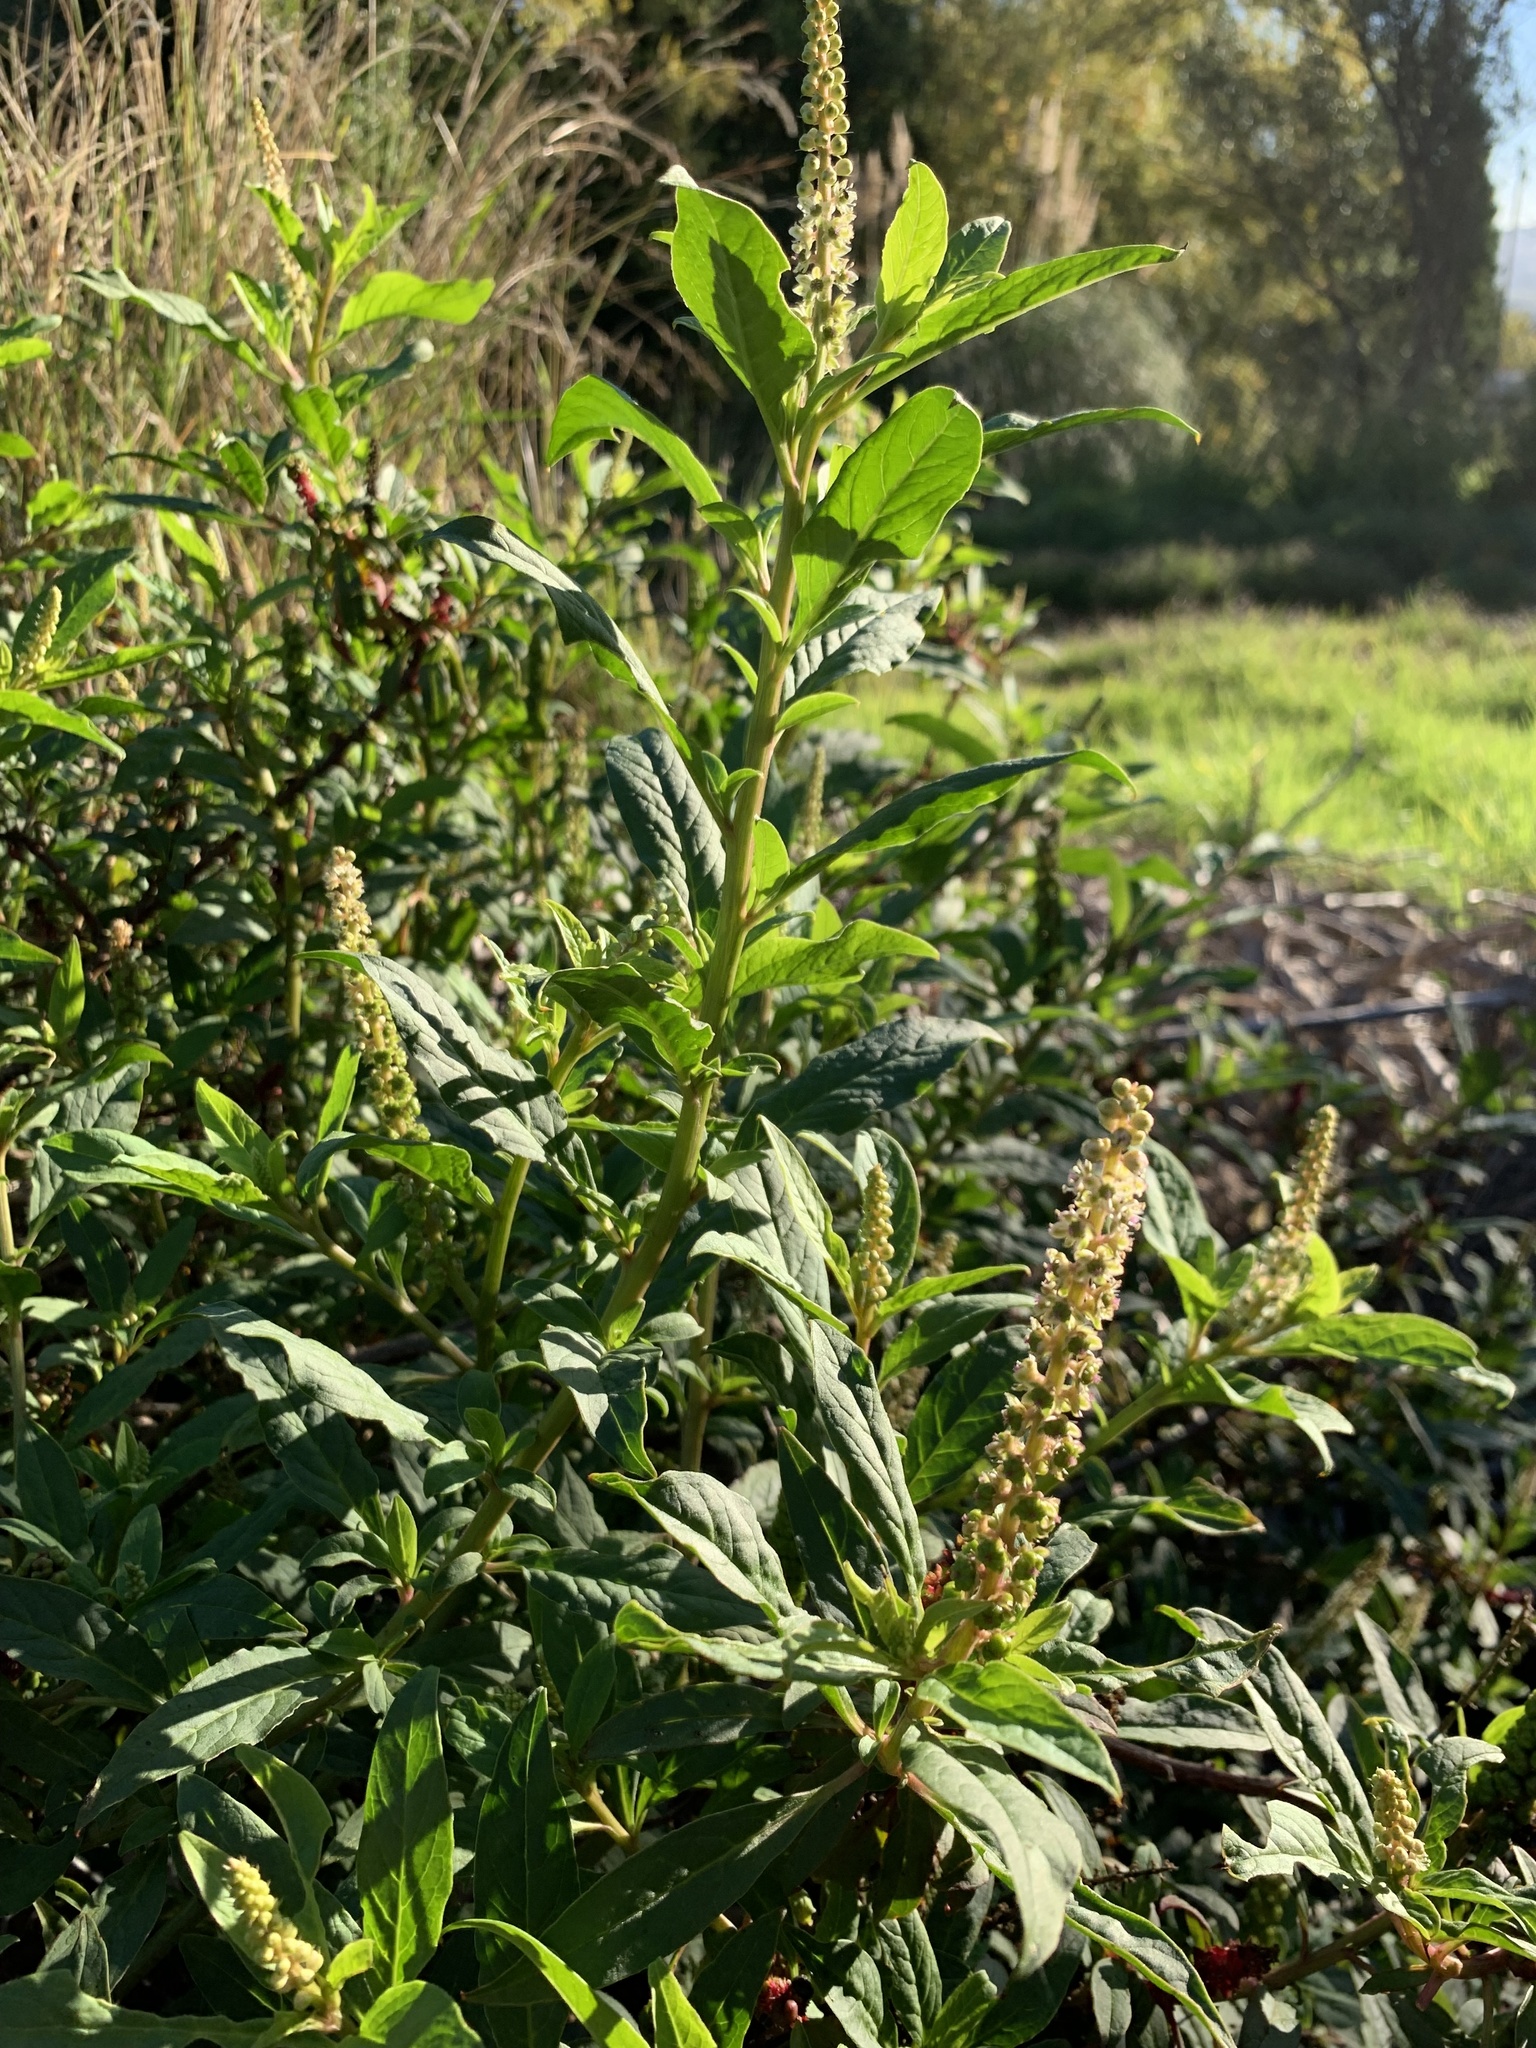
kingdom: Plantae
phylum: Tracheophyta
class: Magnoliopsida
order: Caryophyllales
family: Phytolaccaceae
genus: Phytolacca
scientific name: Phytolacca icosandra
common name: Button pokeweed
